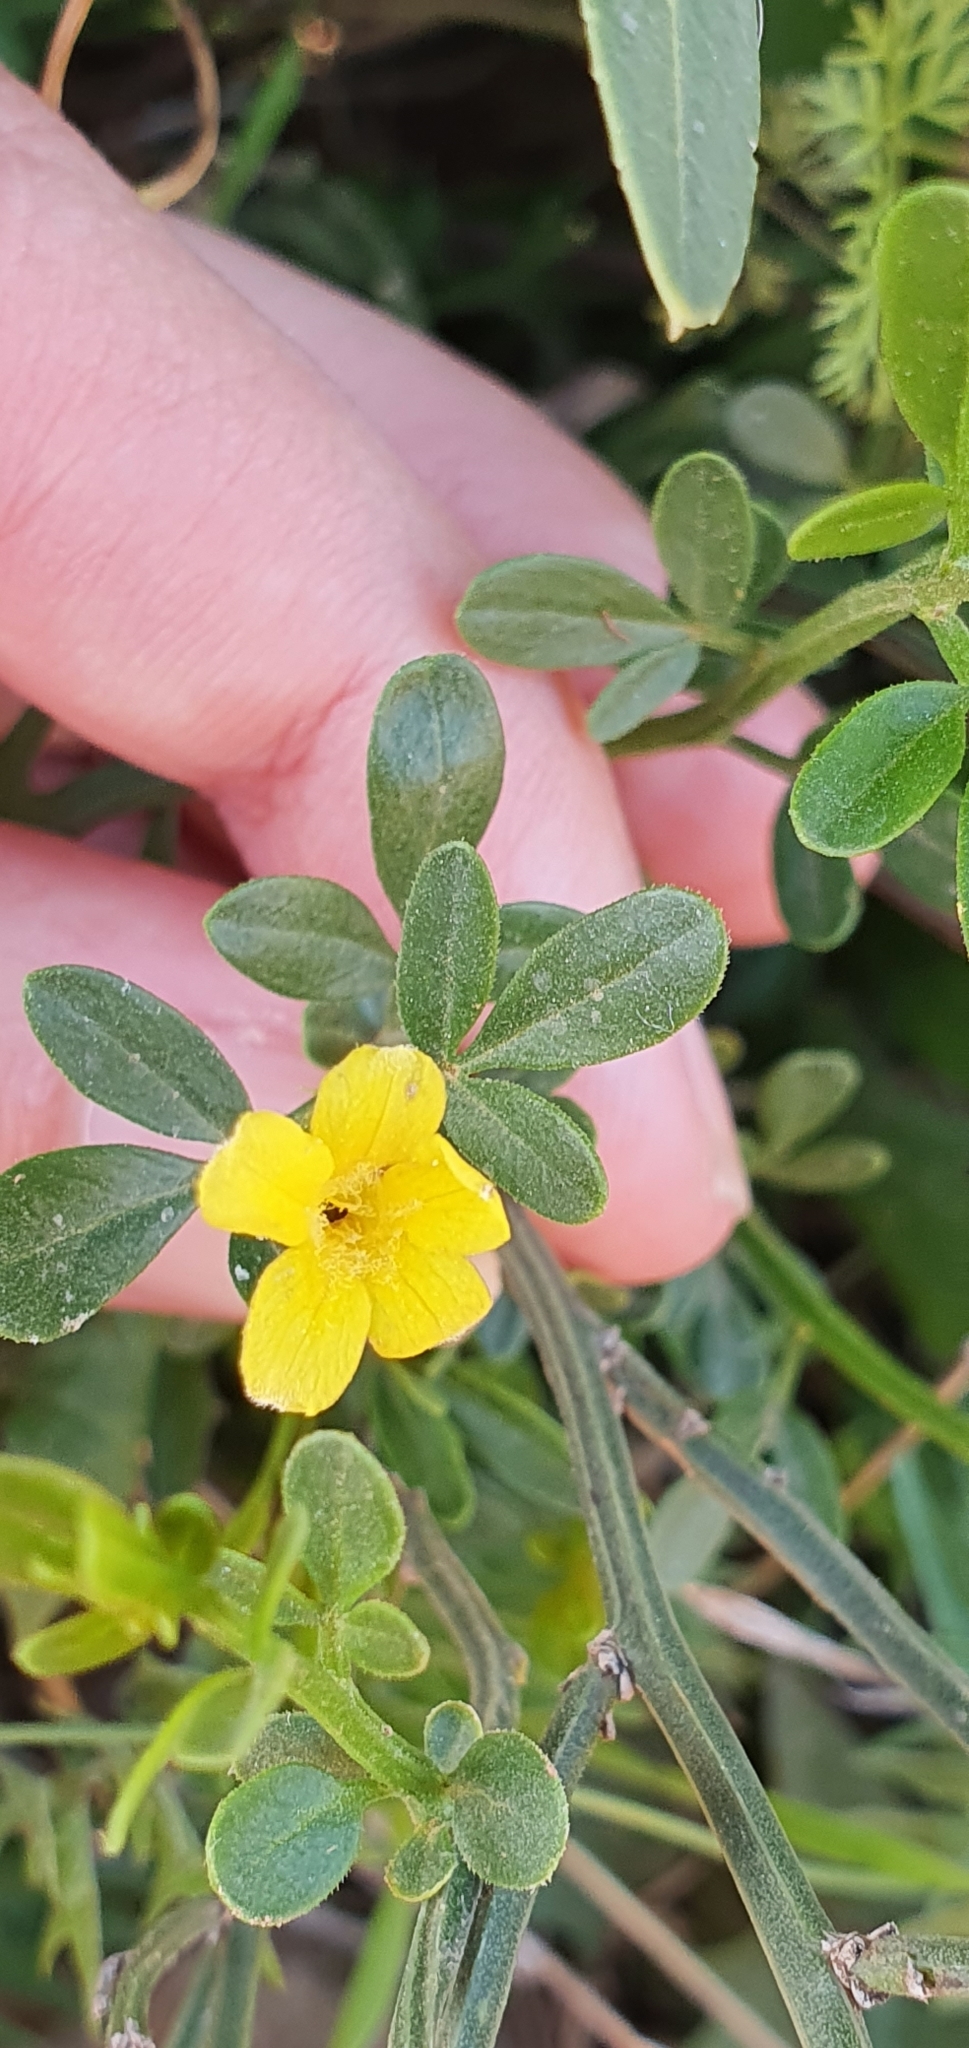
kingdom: Plantae
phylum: Tracheophyta
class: Magnoliopsida
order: Lamiales
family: Oleaceae
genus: Chrysojasminum
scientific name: Chrysojasminum fruticans
